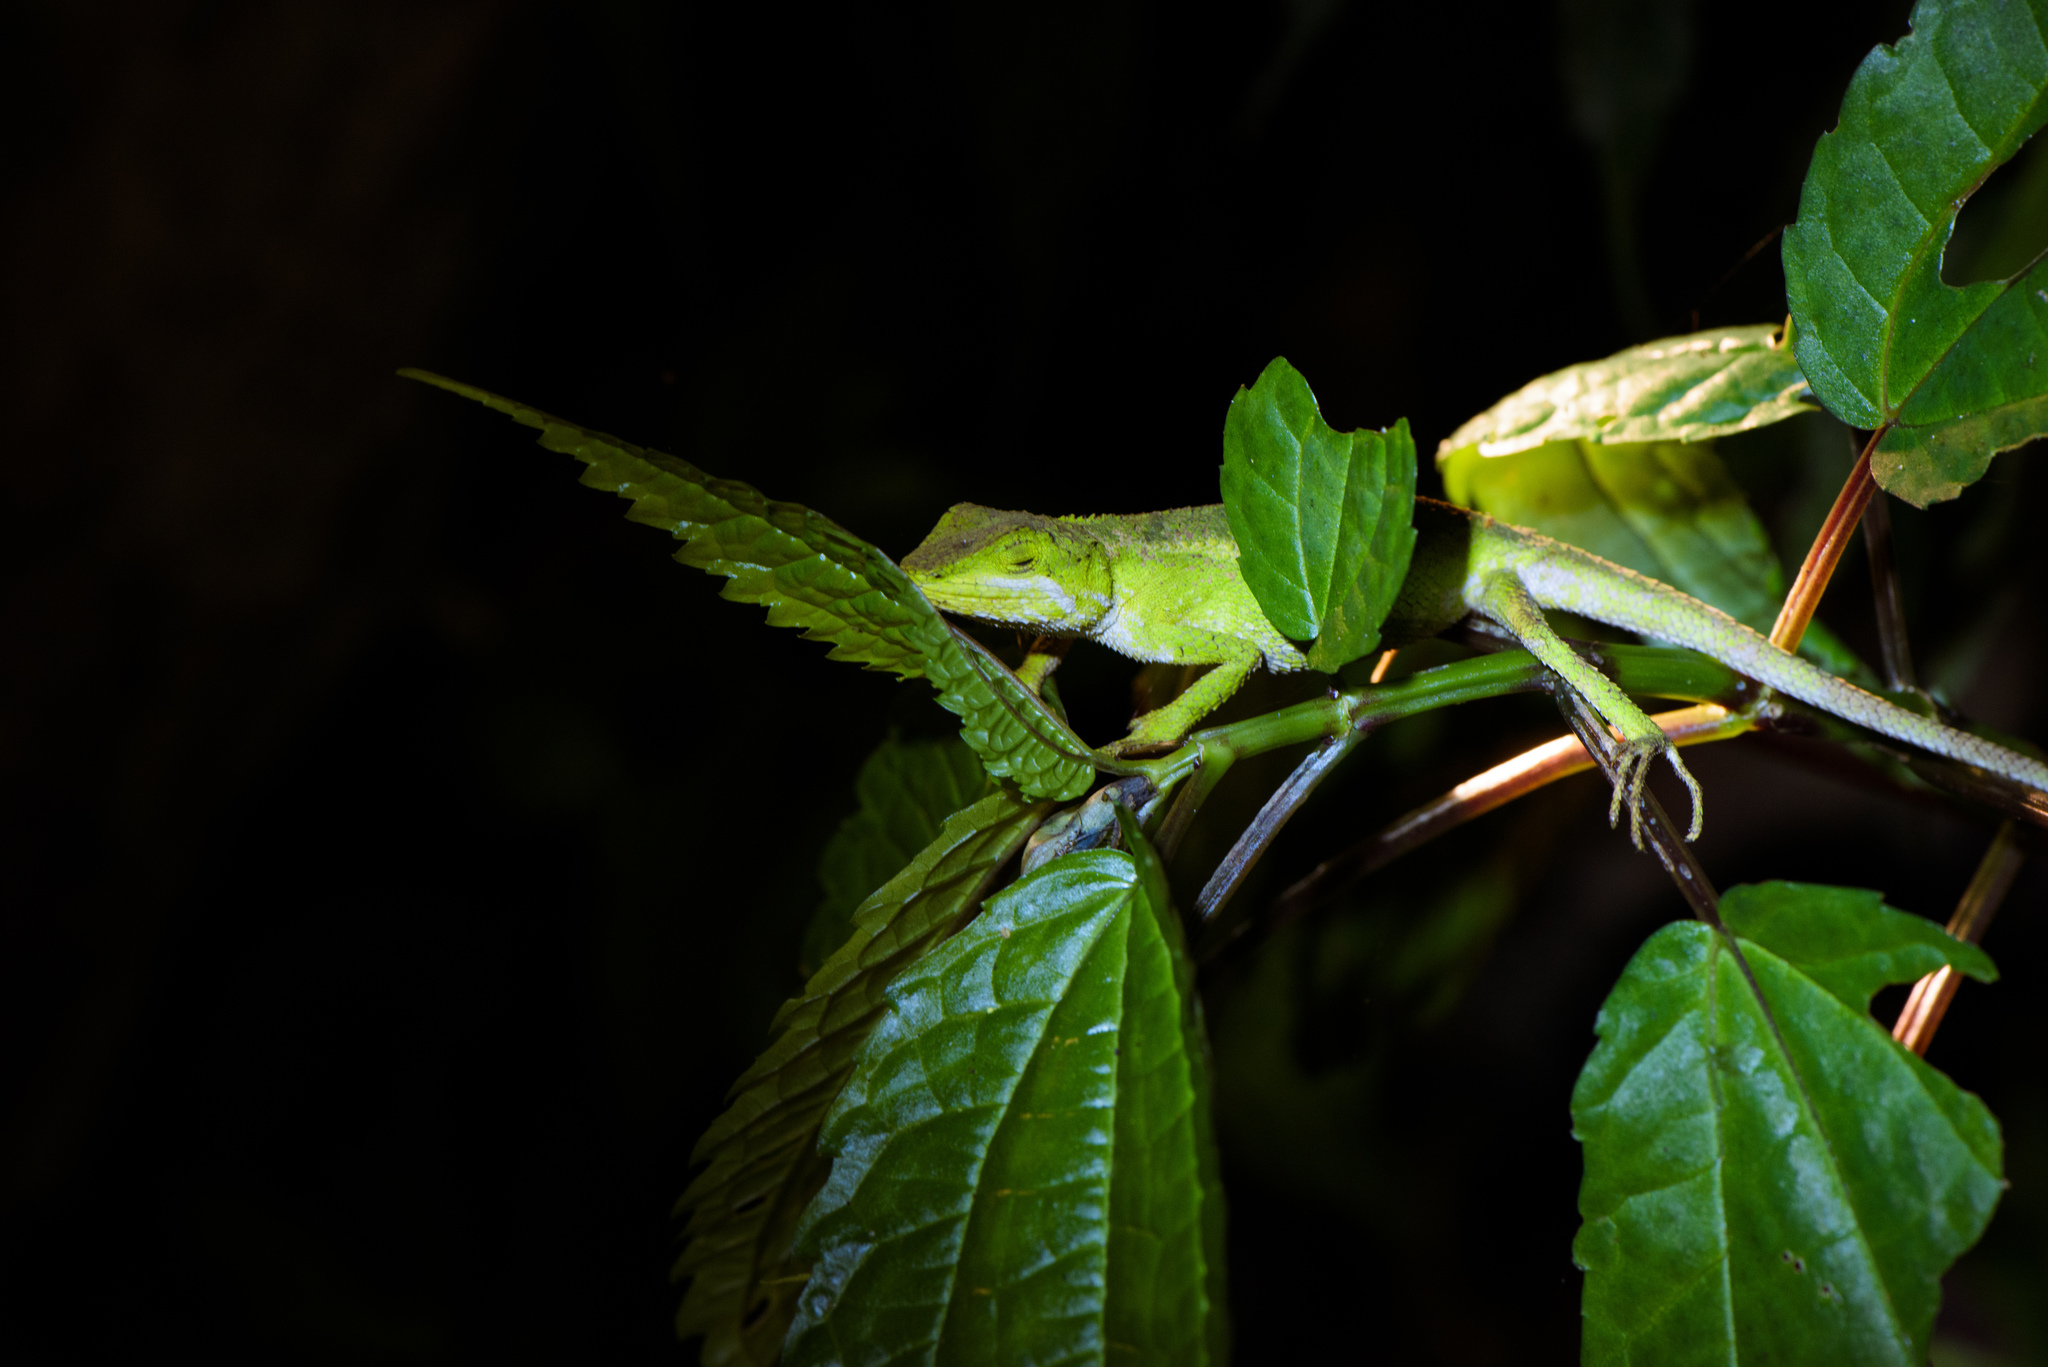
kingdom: Animalia
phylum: Chordata
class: Squamata
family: Agamidae
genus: Diploderma
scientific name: Diploderma brevipes
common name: Short-legged japalure
